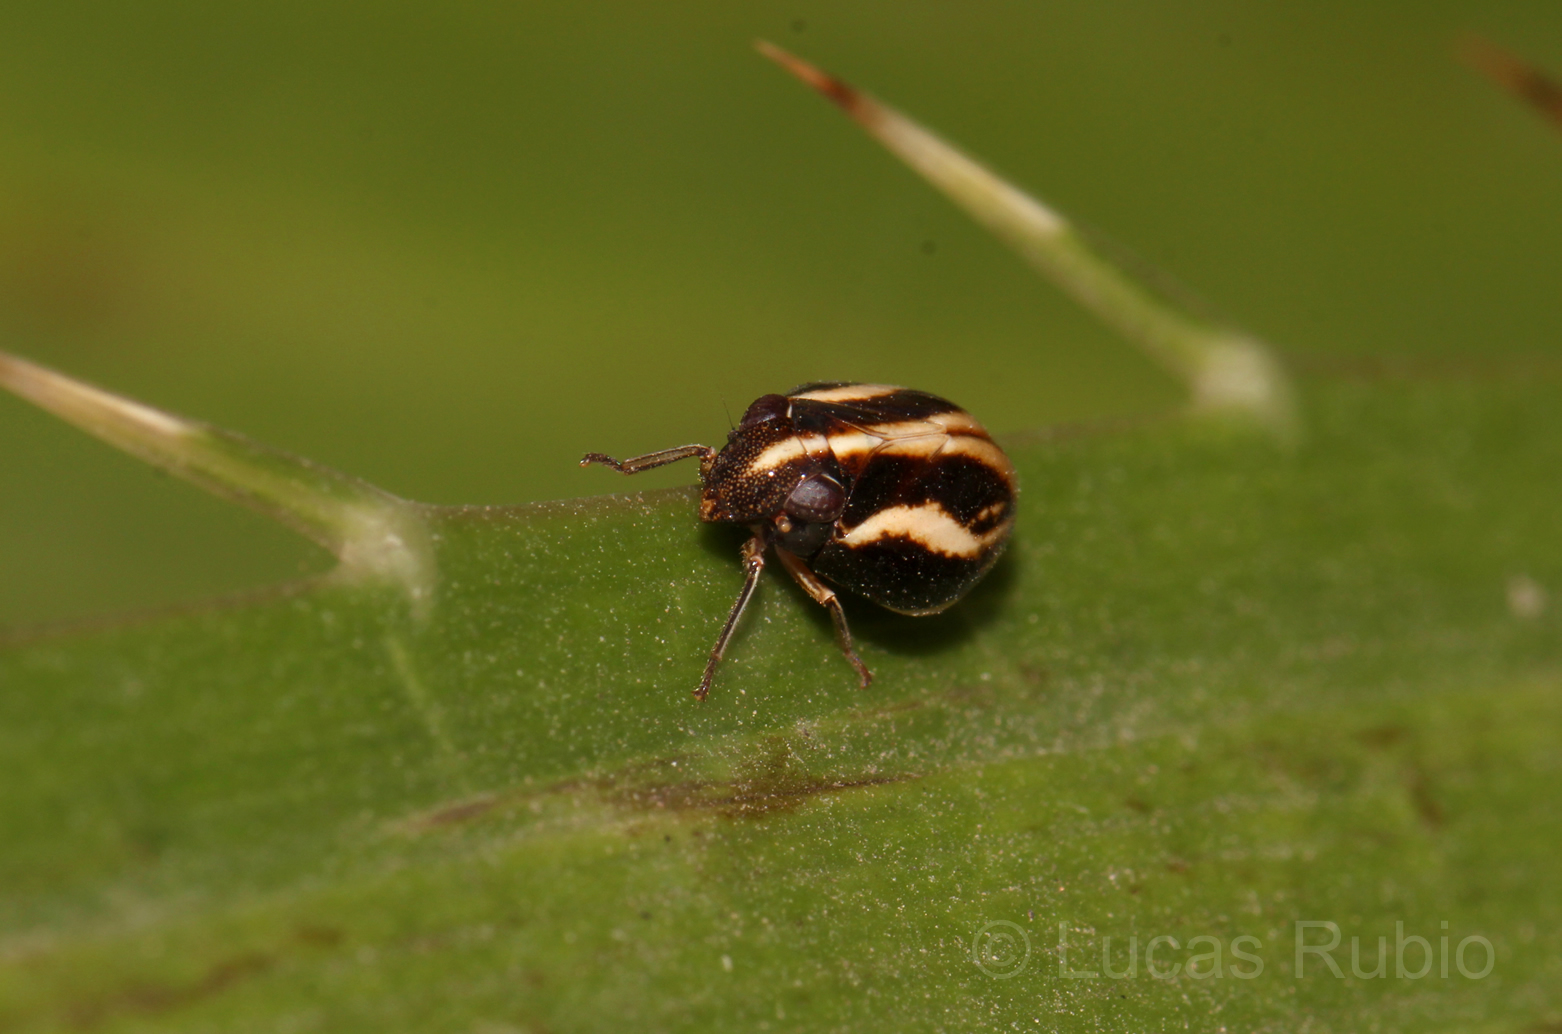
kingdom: Animalia
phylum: Arthropoda
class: Insecta
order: Hemiptera
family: Issidae
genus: Argepara
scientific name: Argepara lyra
